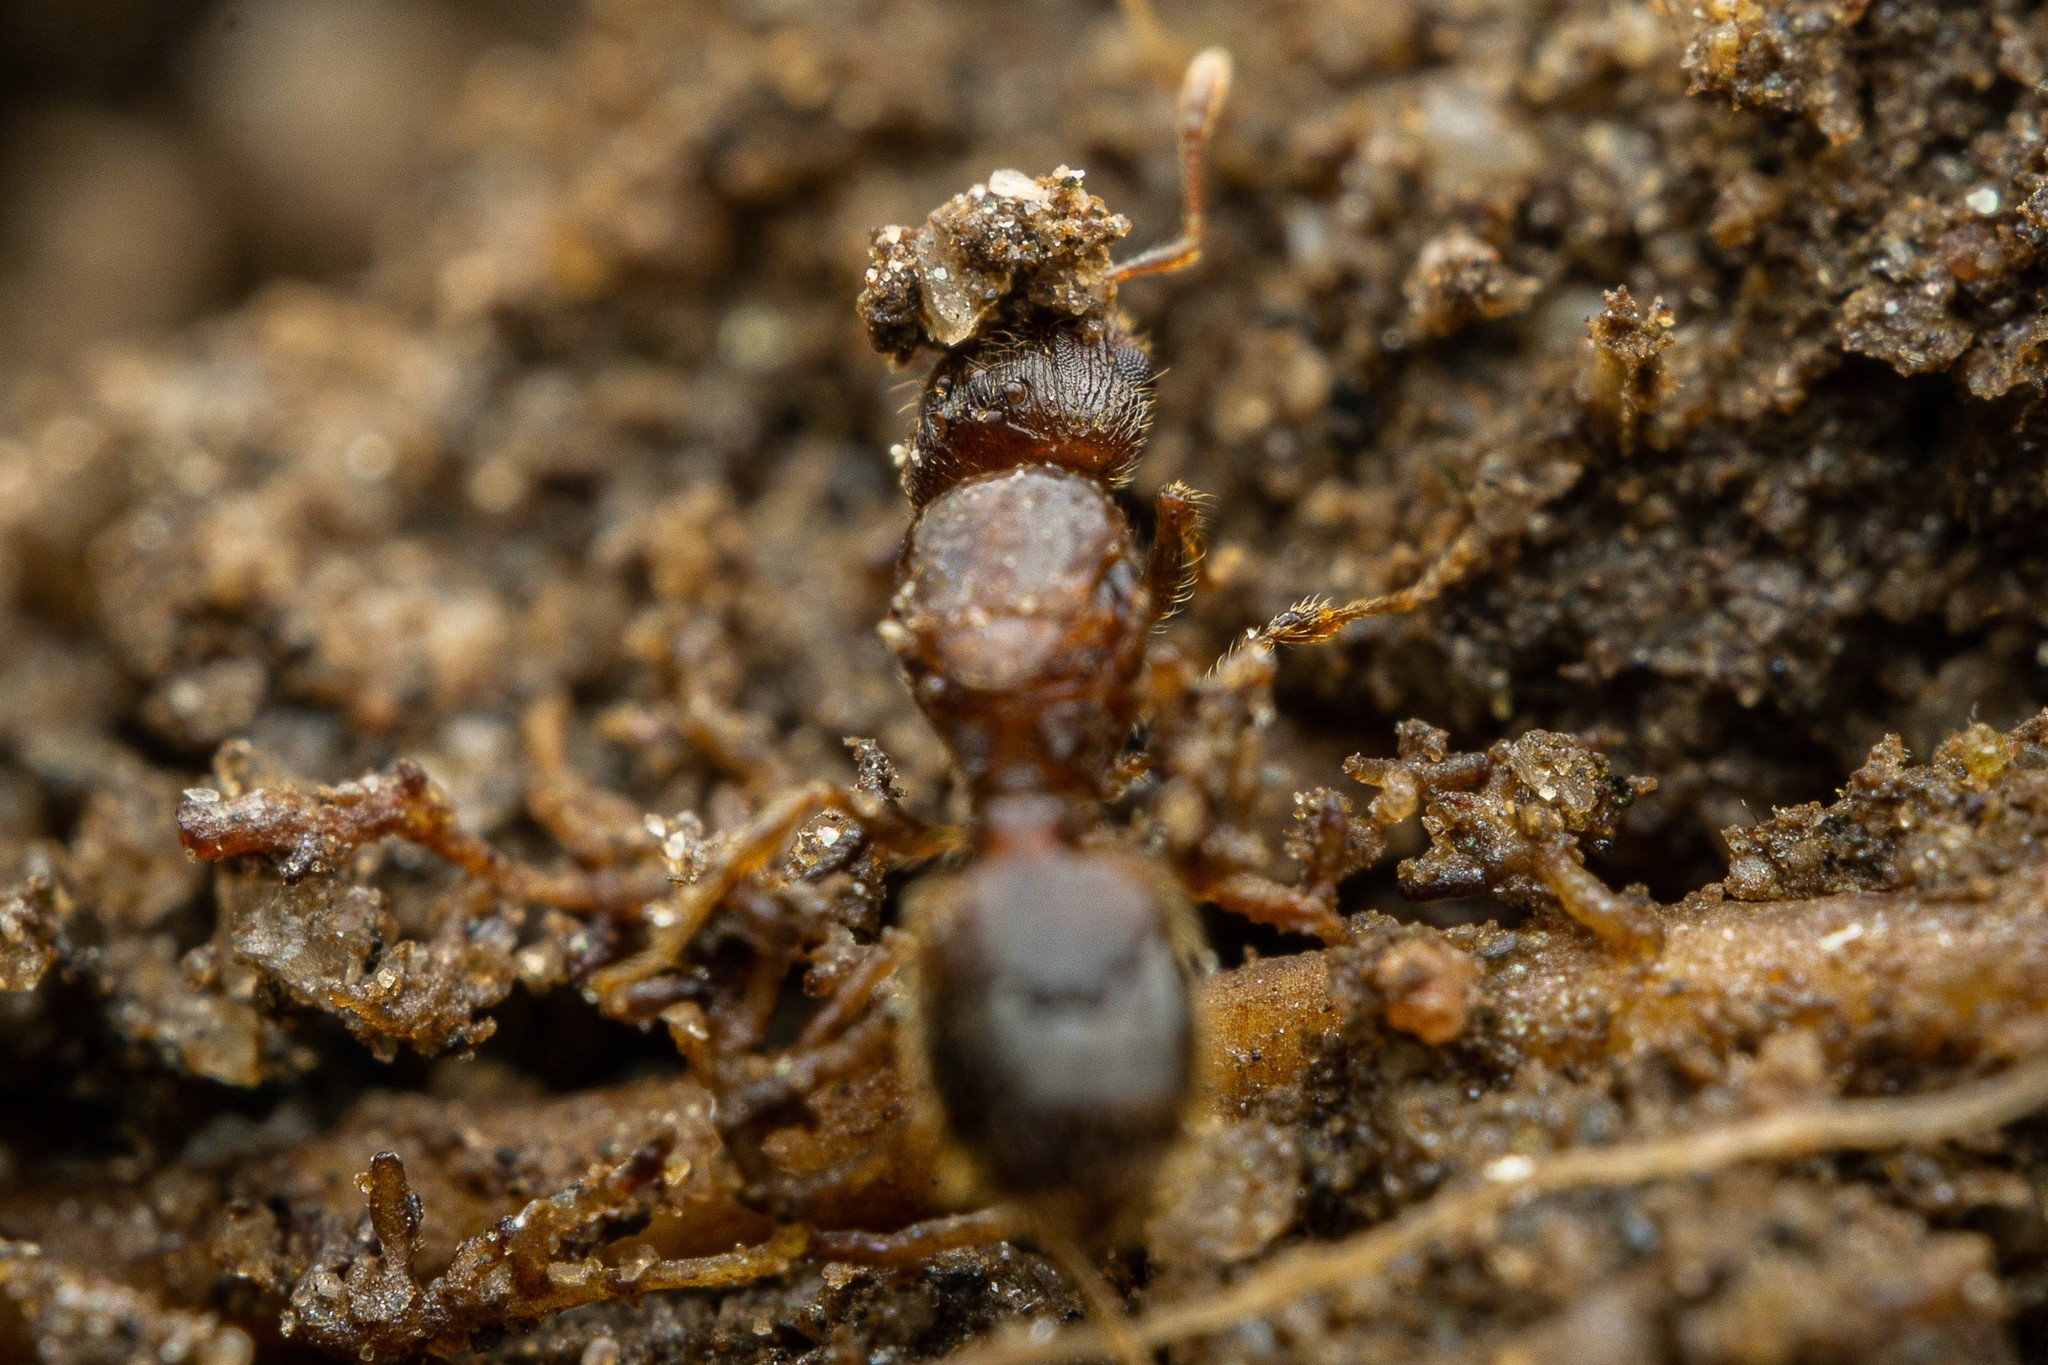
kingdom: Animalia
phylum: Arthropoda
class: Insecta
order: Hymenoptera
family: Formicidae
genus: Pheidole
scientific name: Pheidole navigans
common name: Navigating big-headed ant
